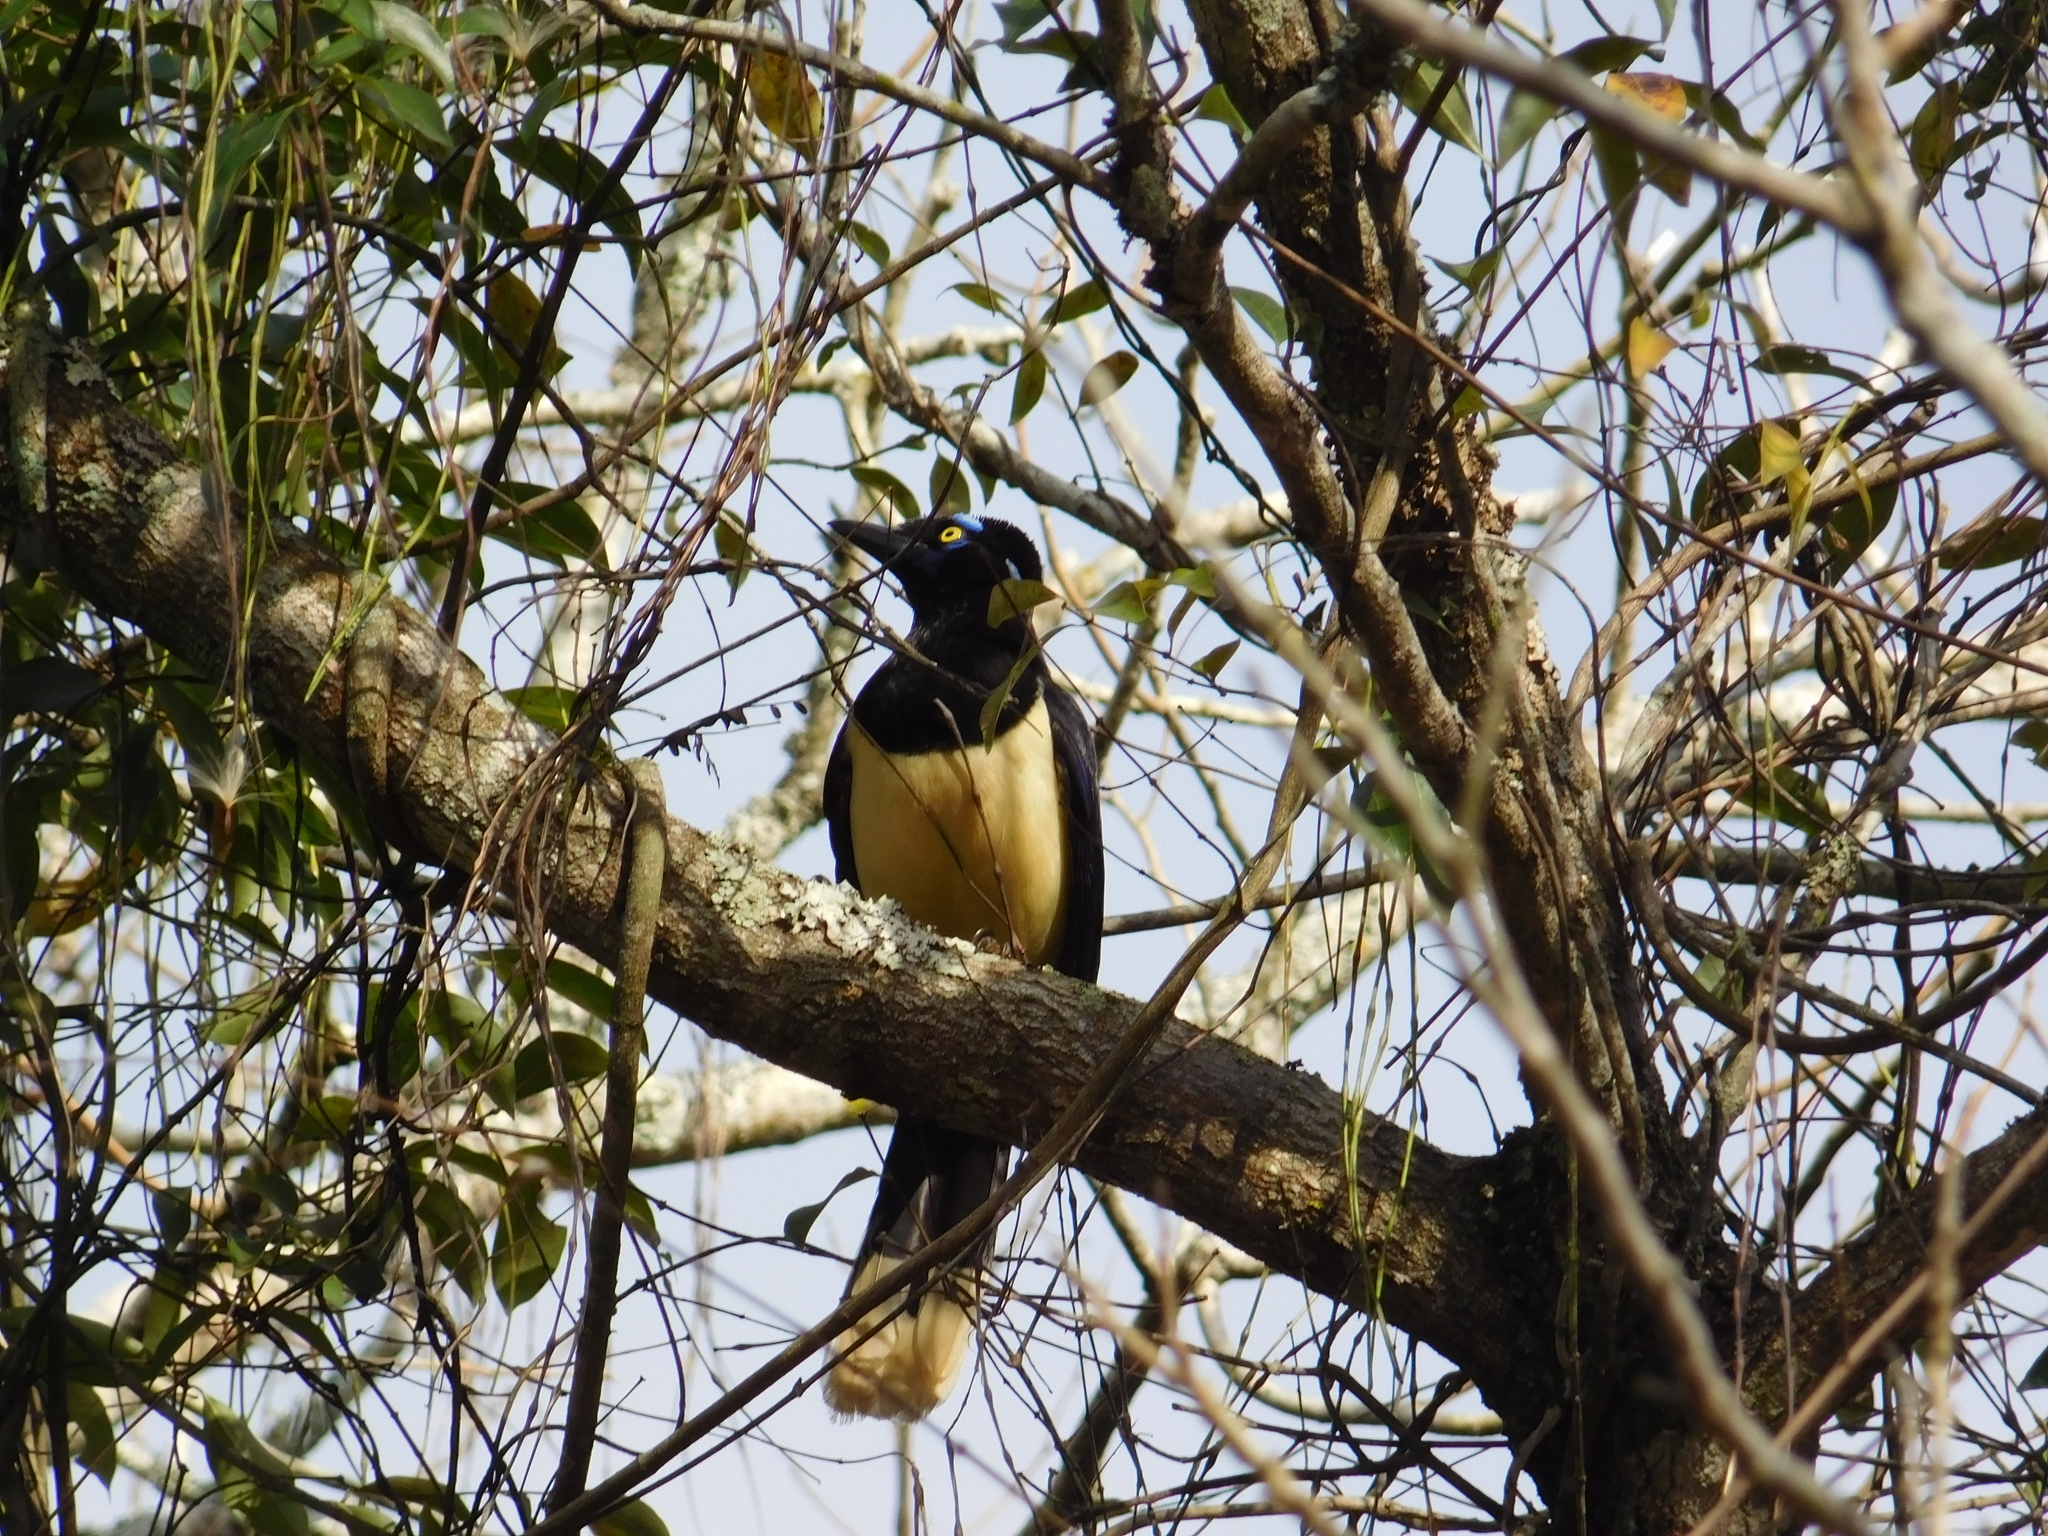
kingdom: Animalia
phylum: Chordata
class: Aves
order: Passeriformes
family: Corvidae
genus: Cyanocorax
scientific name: Cyanocorax chrysops
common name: Plush-crested jay
